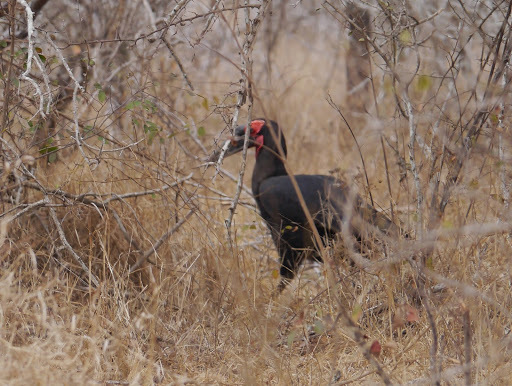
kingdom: Animalia
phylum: Chordata
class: Aves
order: Bucerotiformes
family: Bucorvidae
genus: Bucorvus
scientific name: Bucorvus leadbeateri
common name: Southern ground-hornbill
